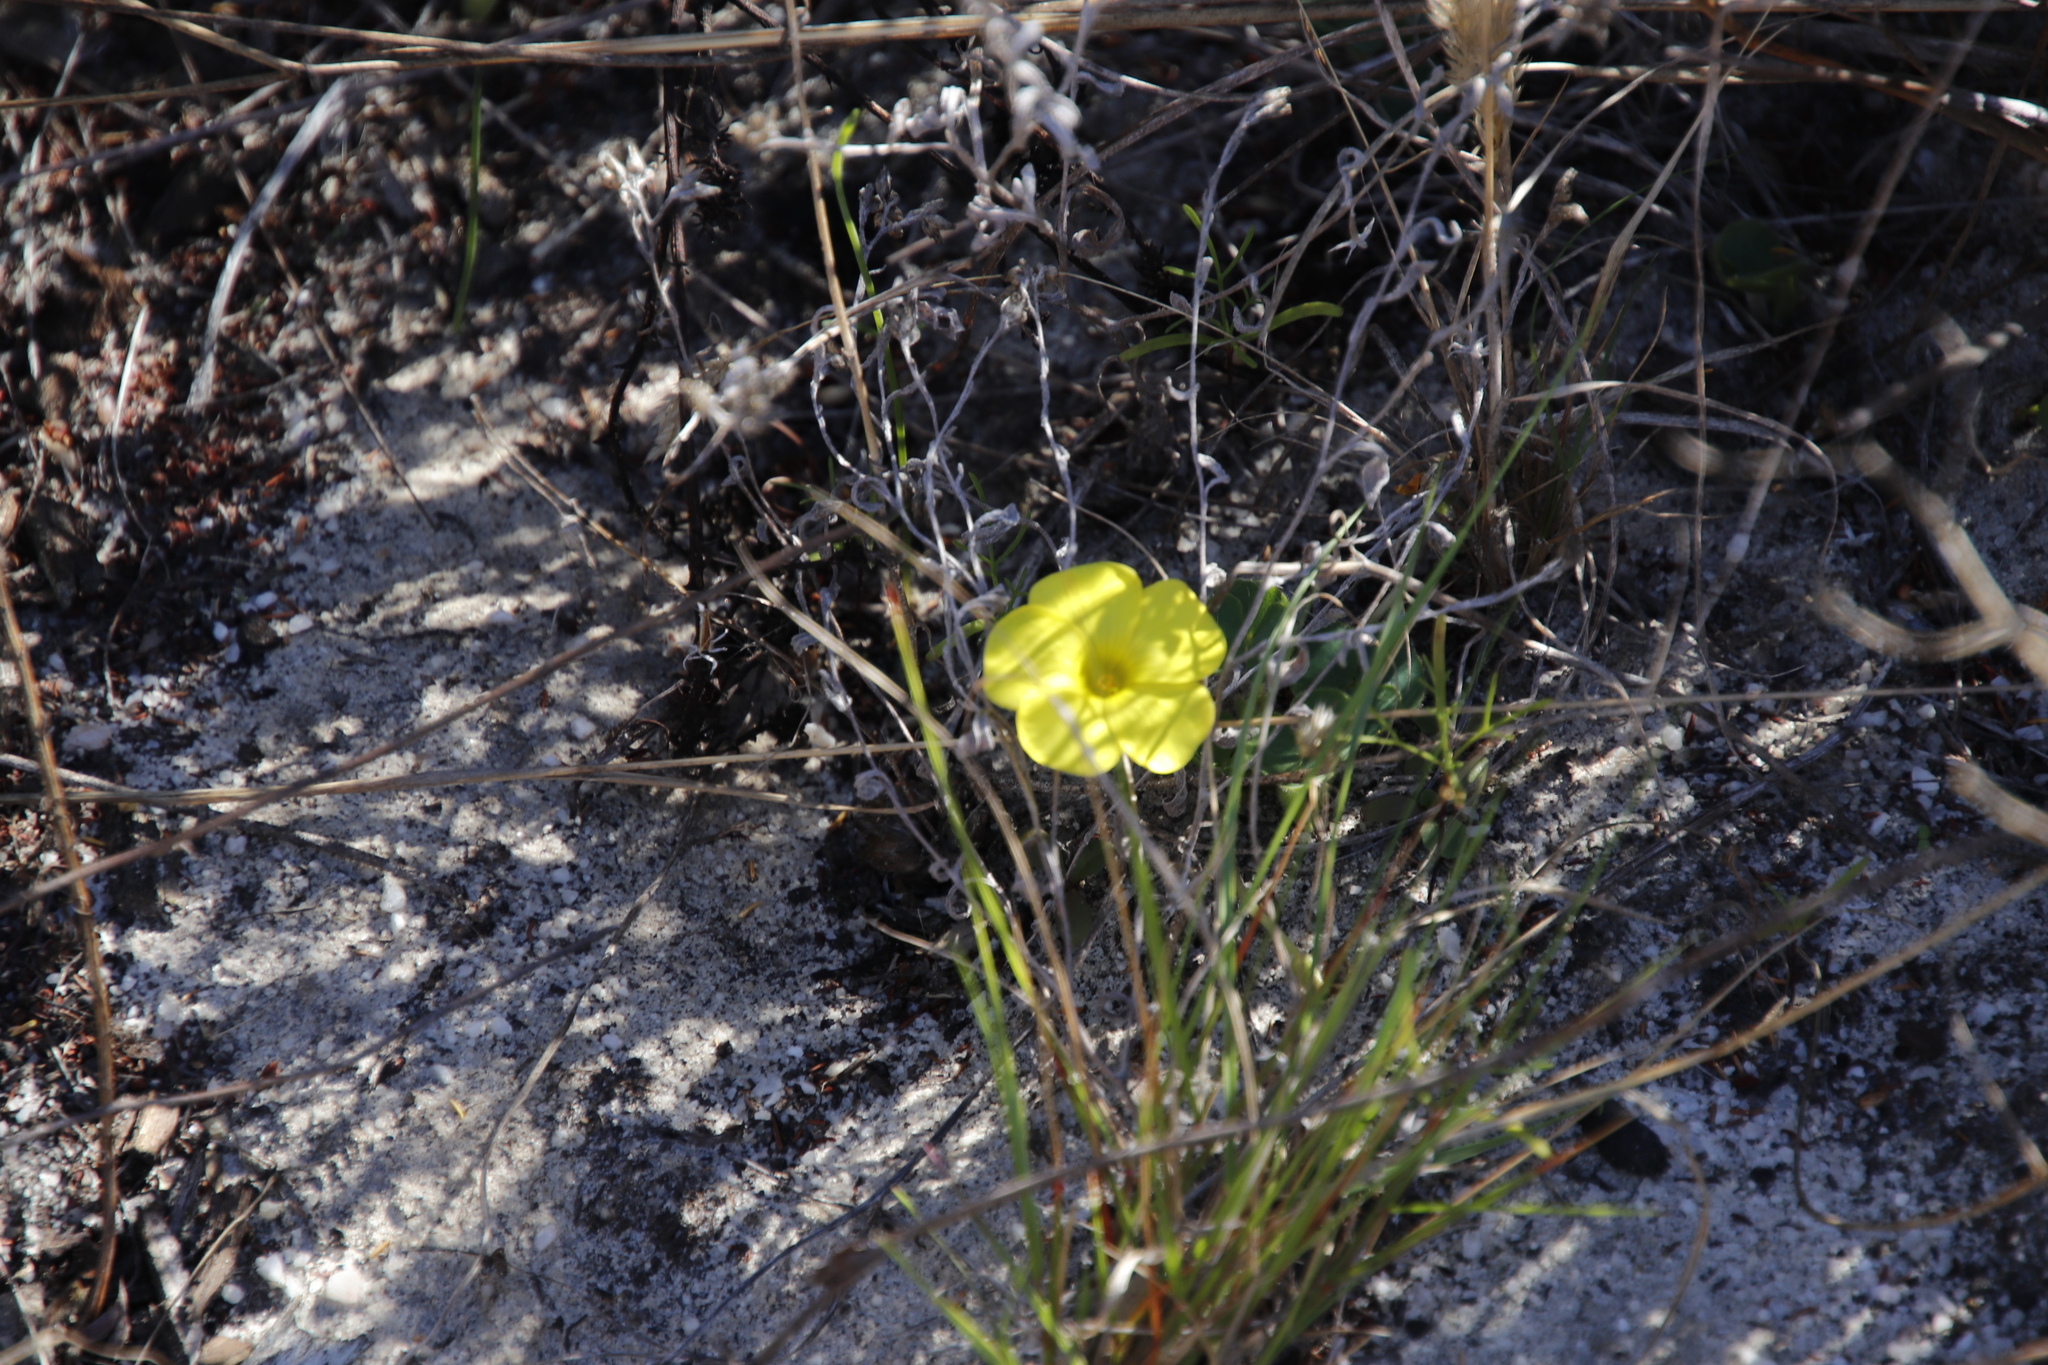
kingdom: Plantae
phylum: Tracheophyta
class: Magnoliopsida
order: Oxalidales
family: Oxalidaceae
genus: Oxalis
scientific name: Oxalis luteola
